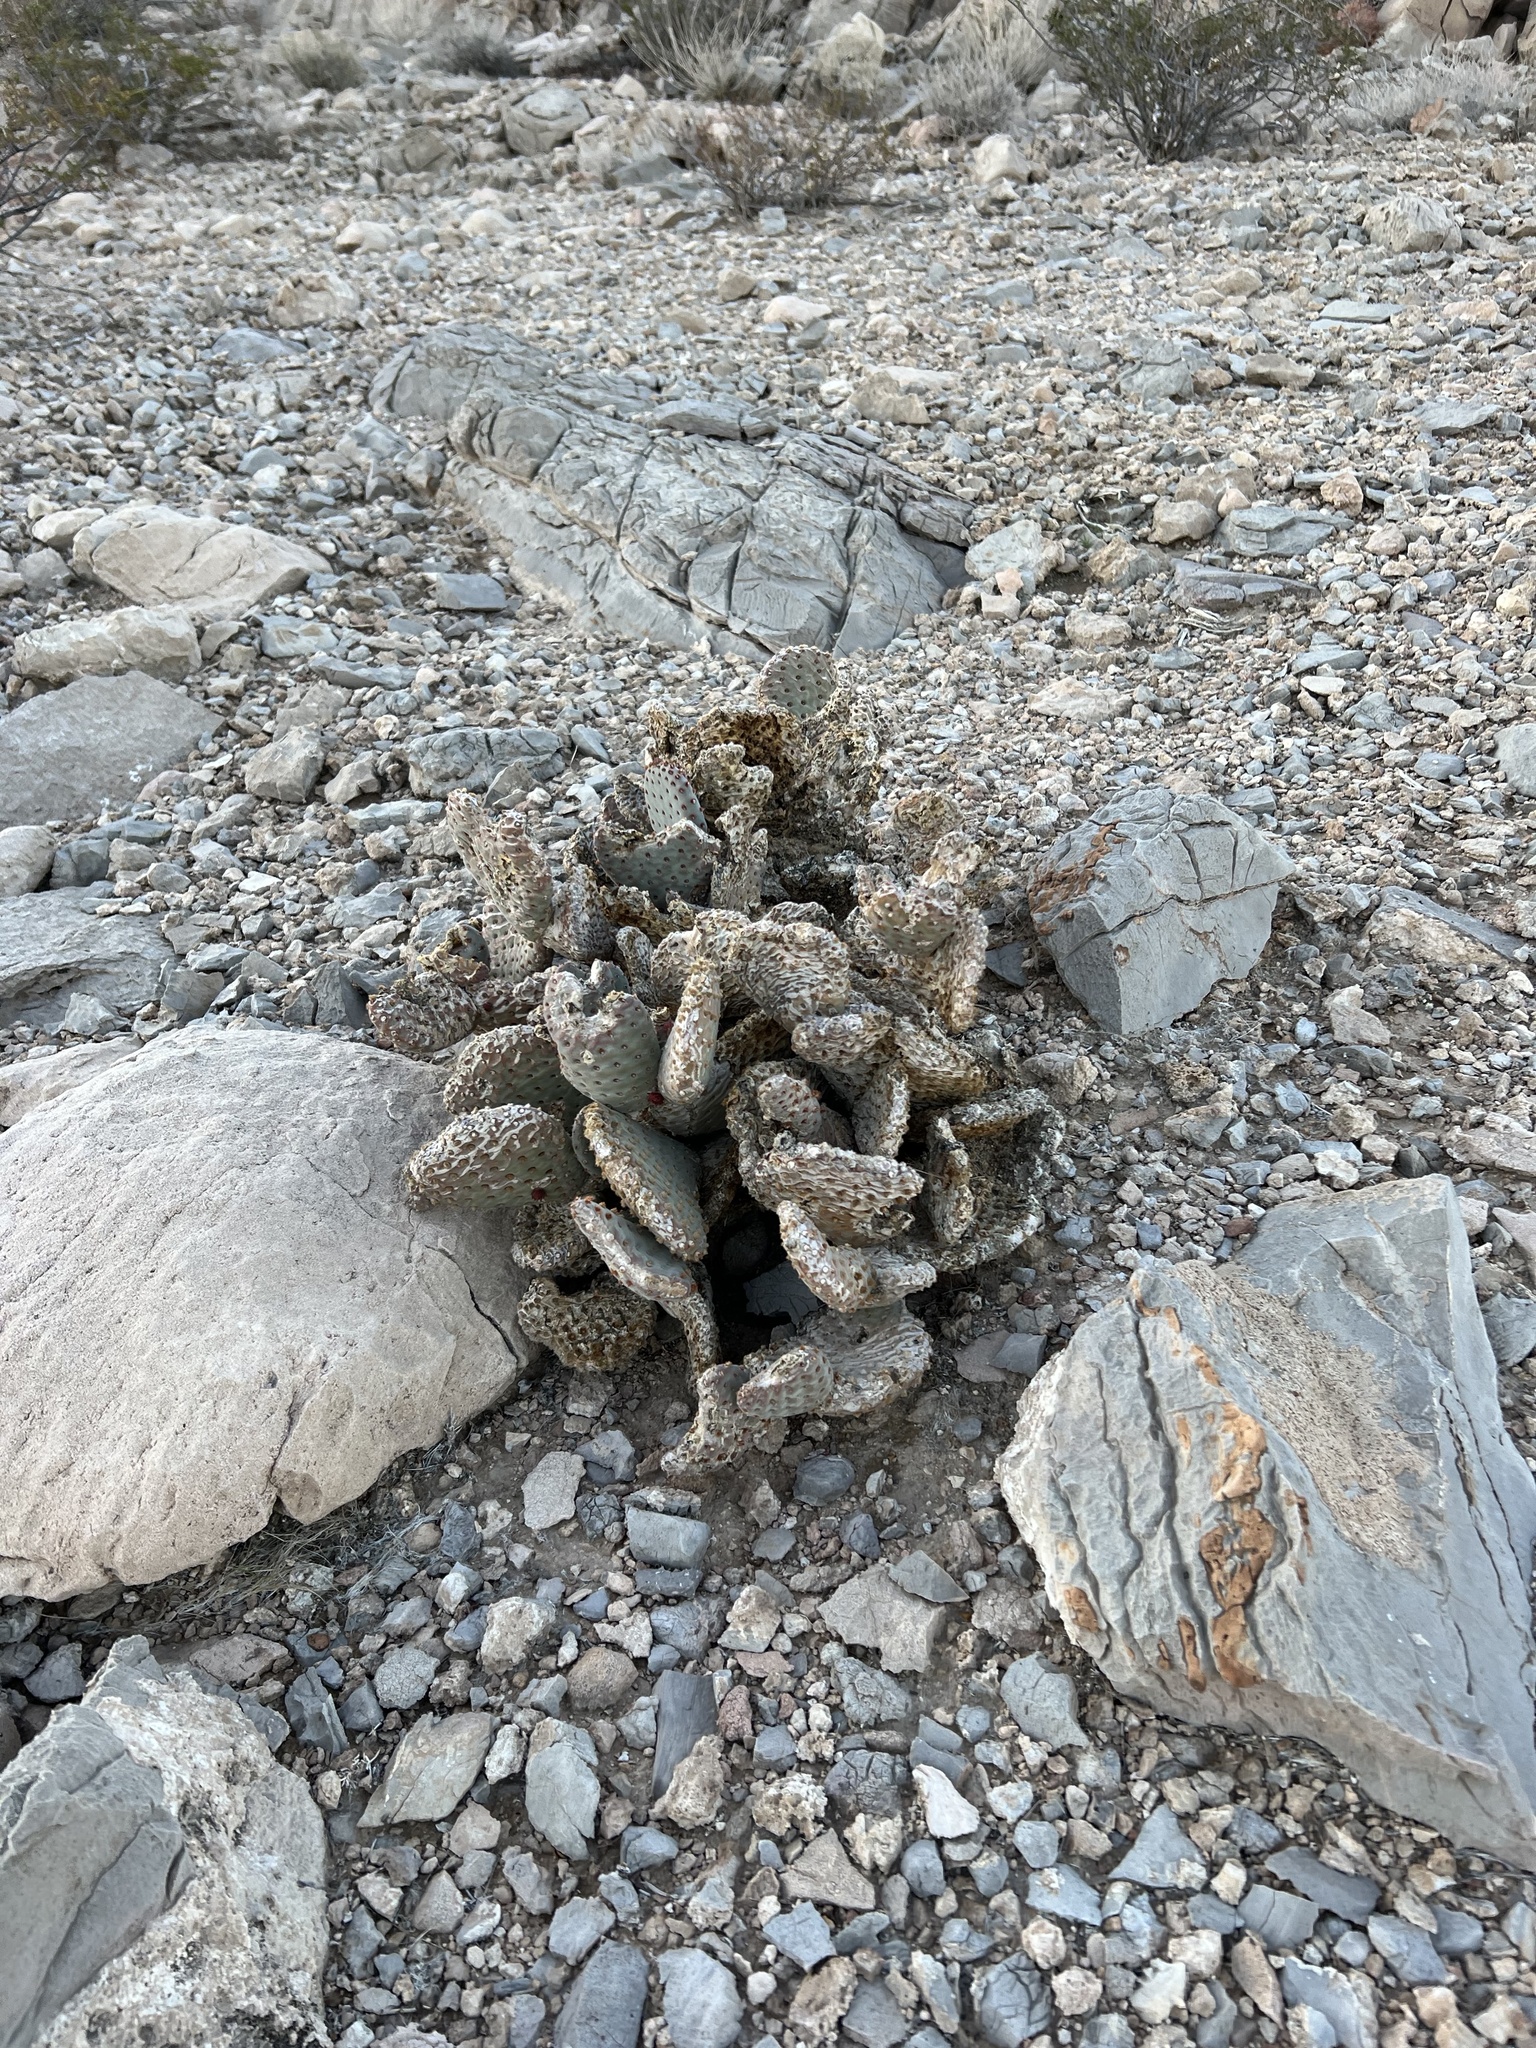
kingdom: Plantae
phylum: Tracheophyta
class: Magnoliopsida
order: Caryophyllales
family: Cactaceae
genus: Opuntia
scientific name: Opuntia basilaris
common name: Beavertail prickly-pear
